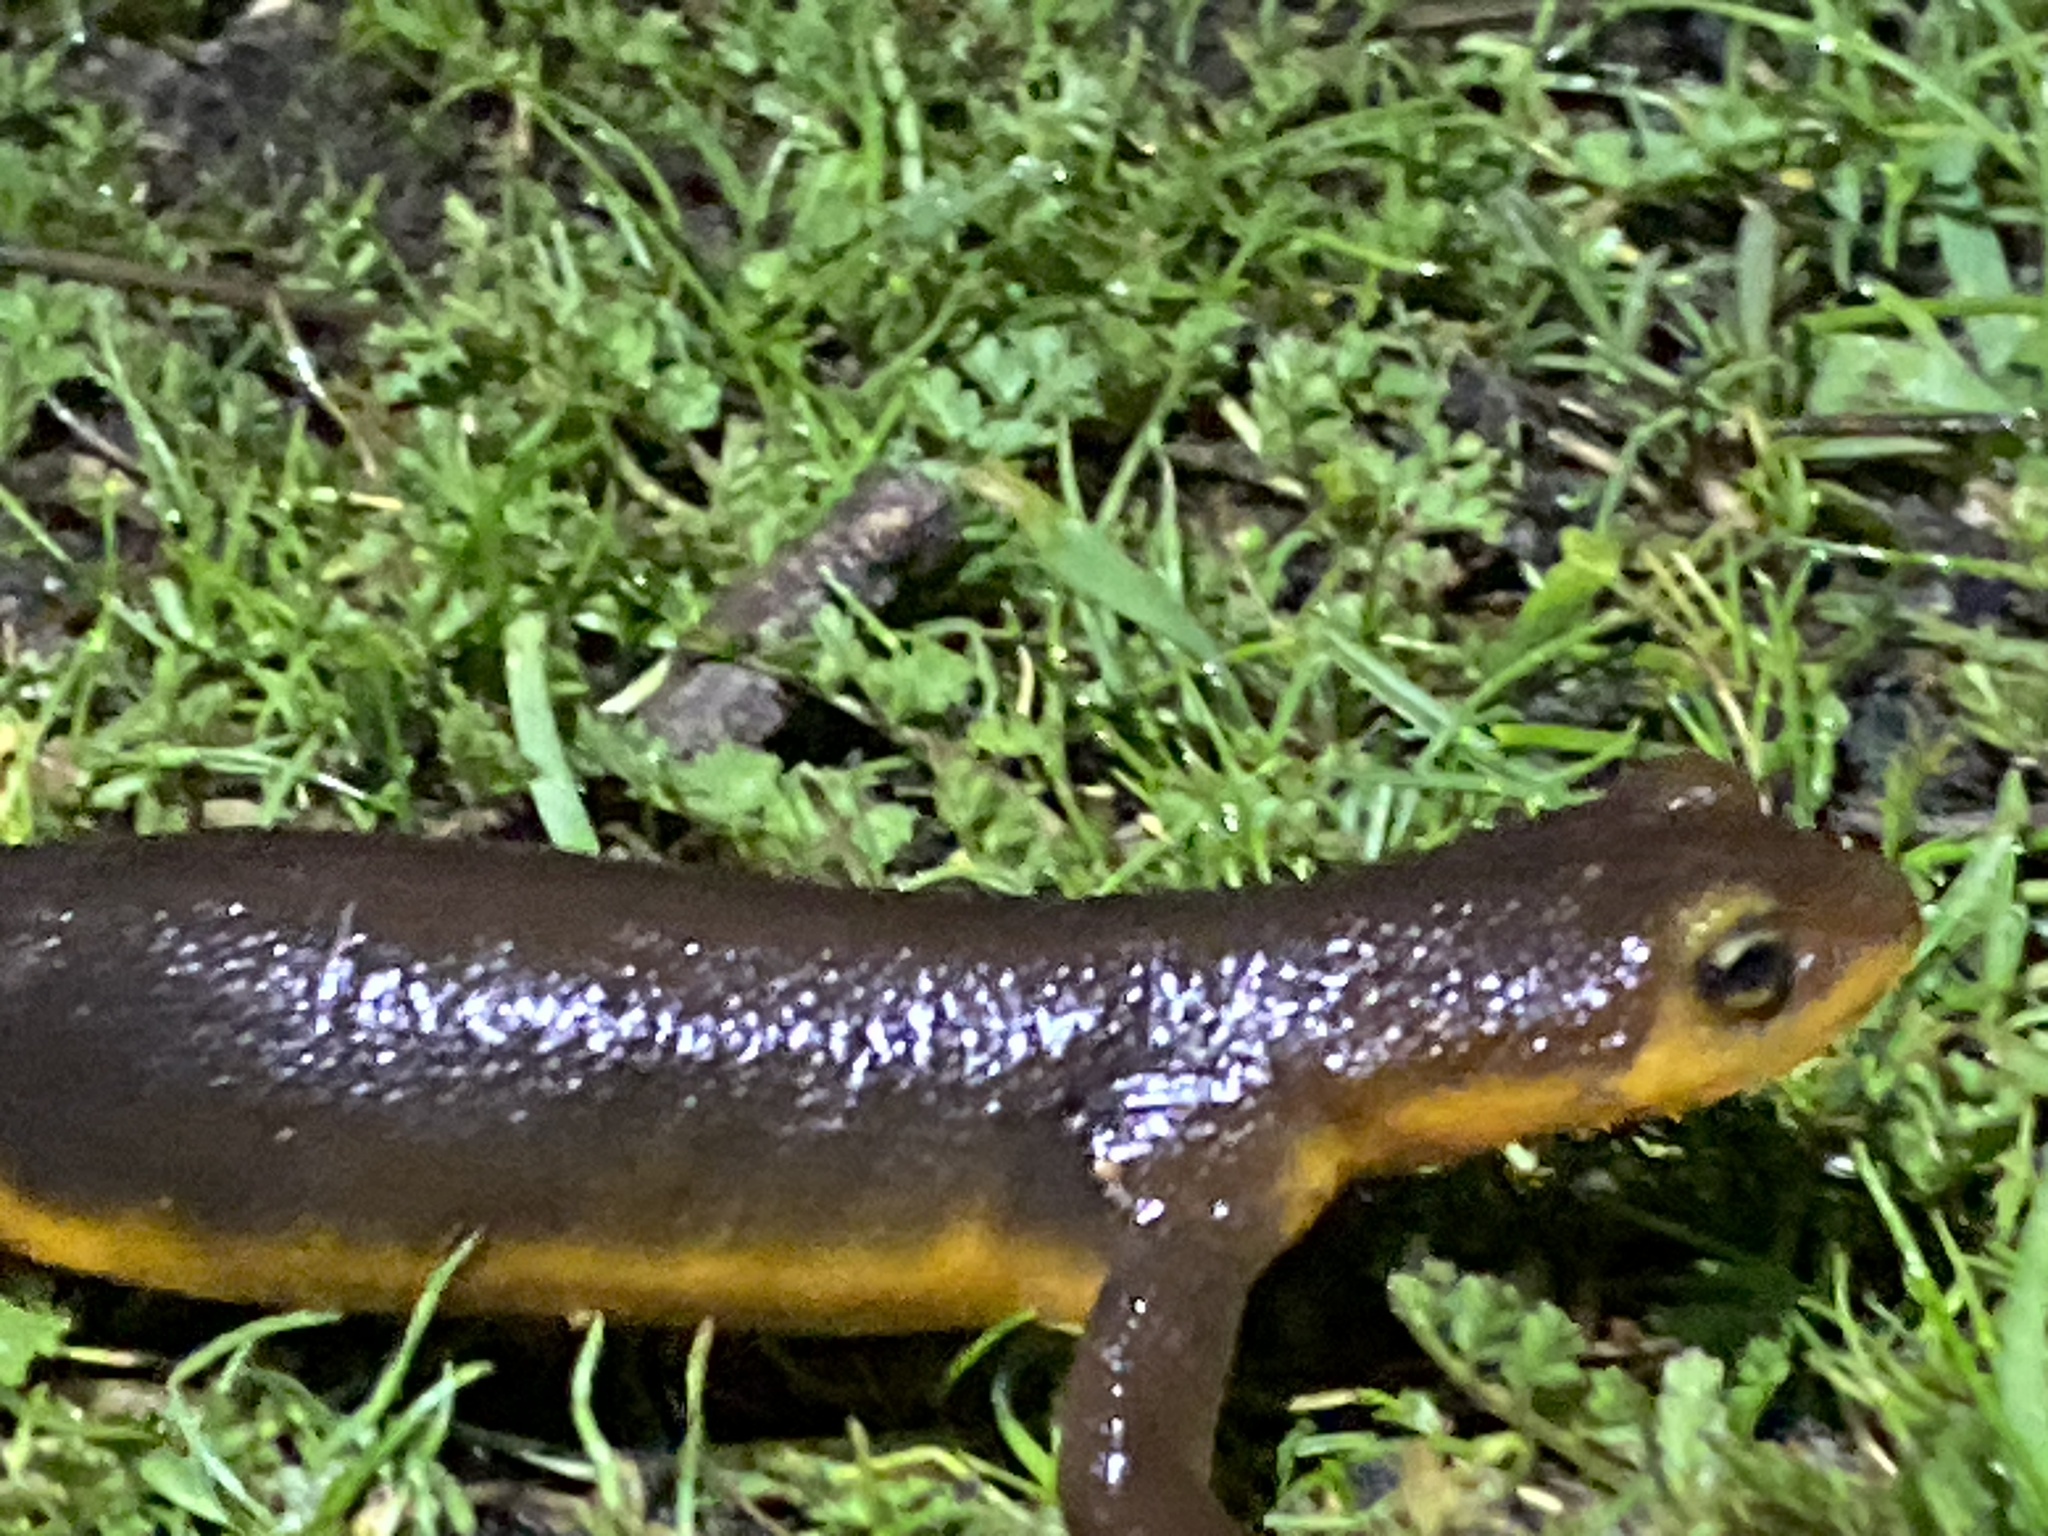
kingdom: Animalia
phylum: Chordata
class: Amphibia
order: Caudata
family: Salamandridae
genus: Taricha
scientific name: Taricha torosa
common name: California newt
